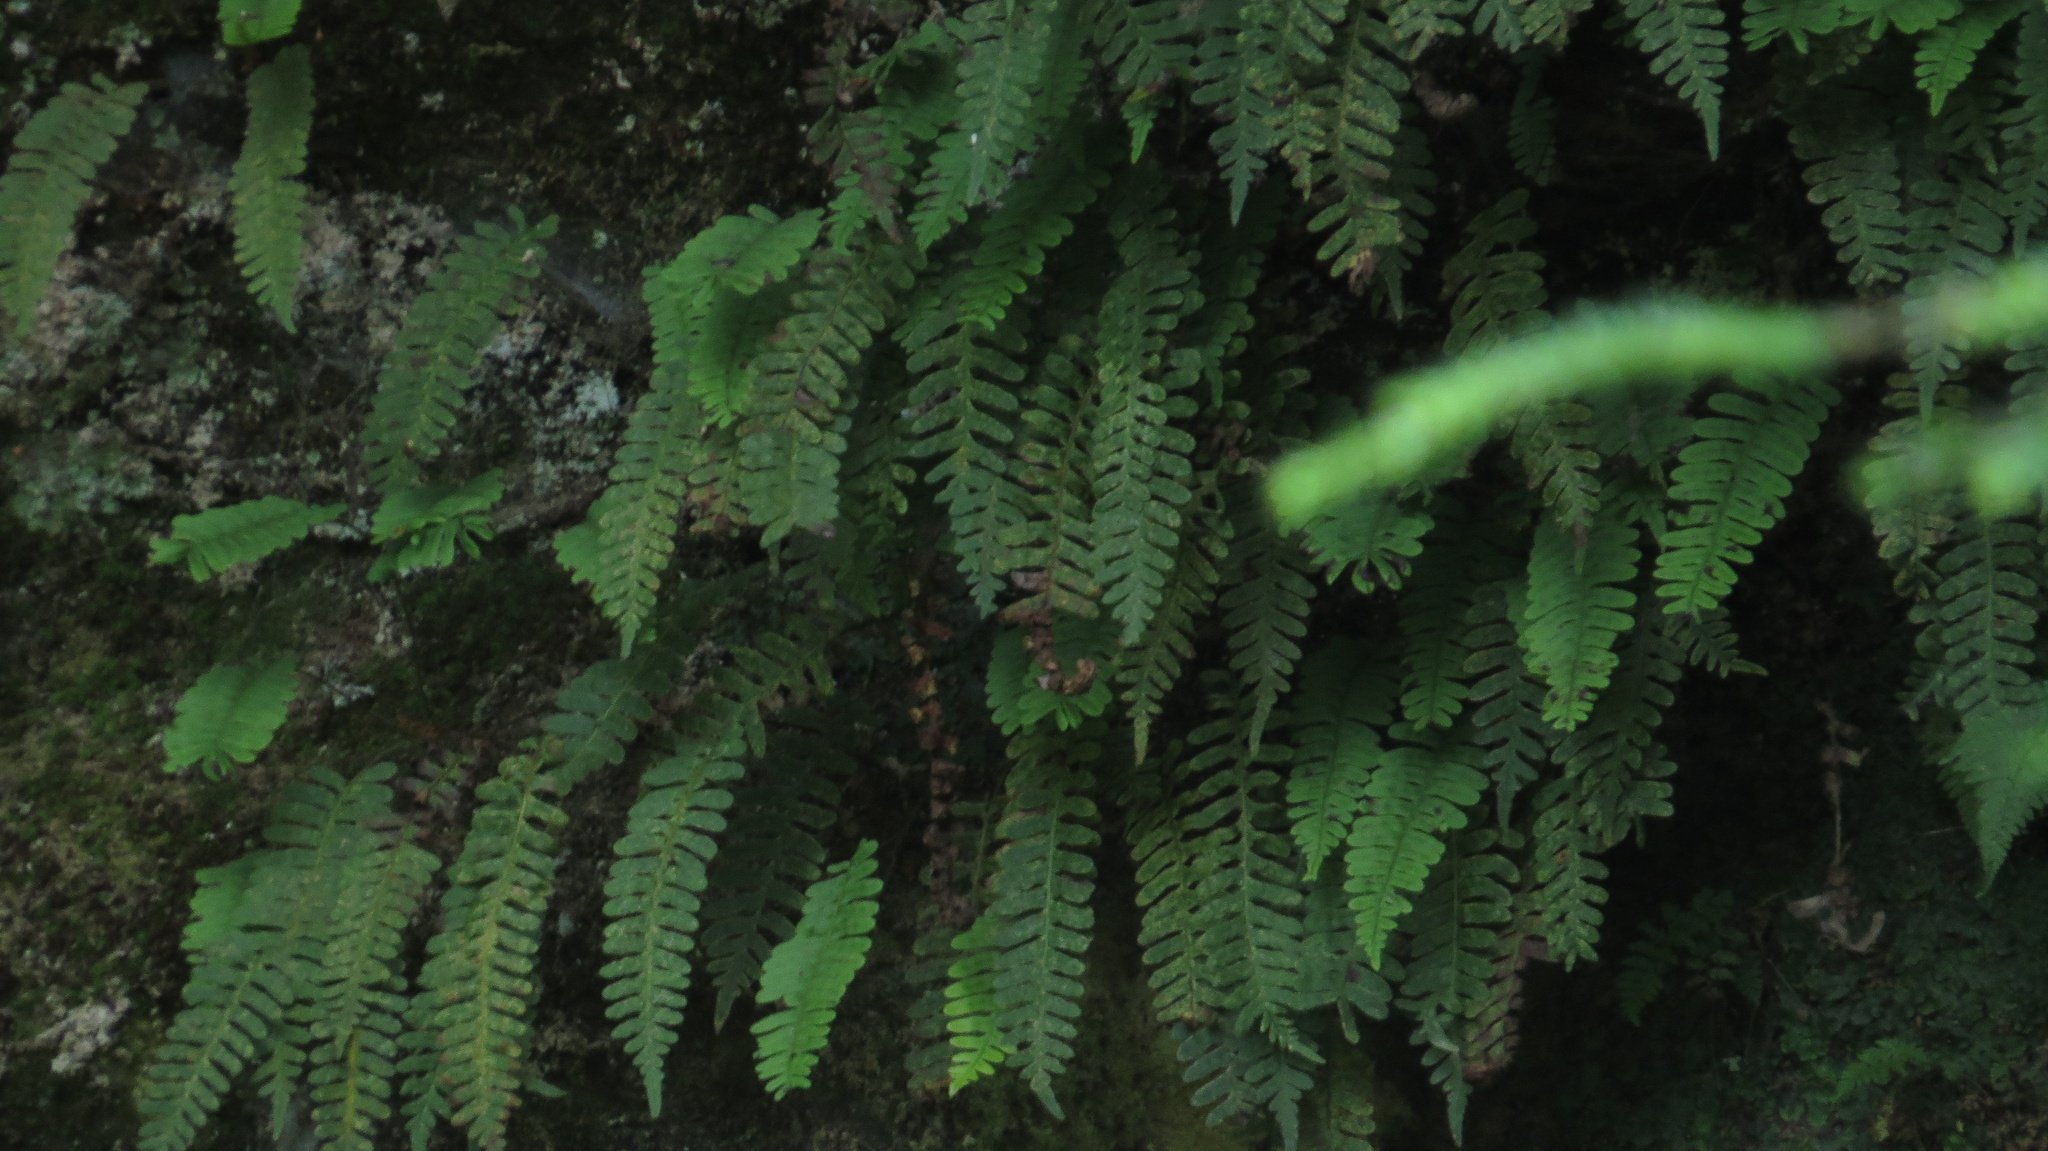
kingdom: Plantae
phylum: Tracheophyta
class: Polypodiopsida
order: Polypodiales
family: Polypodiaceae
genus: Polypodium
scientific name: Polypodium virginianum
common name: American wall fern
